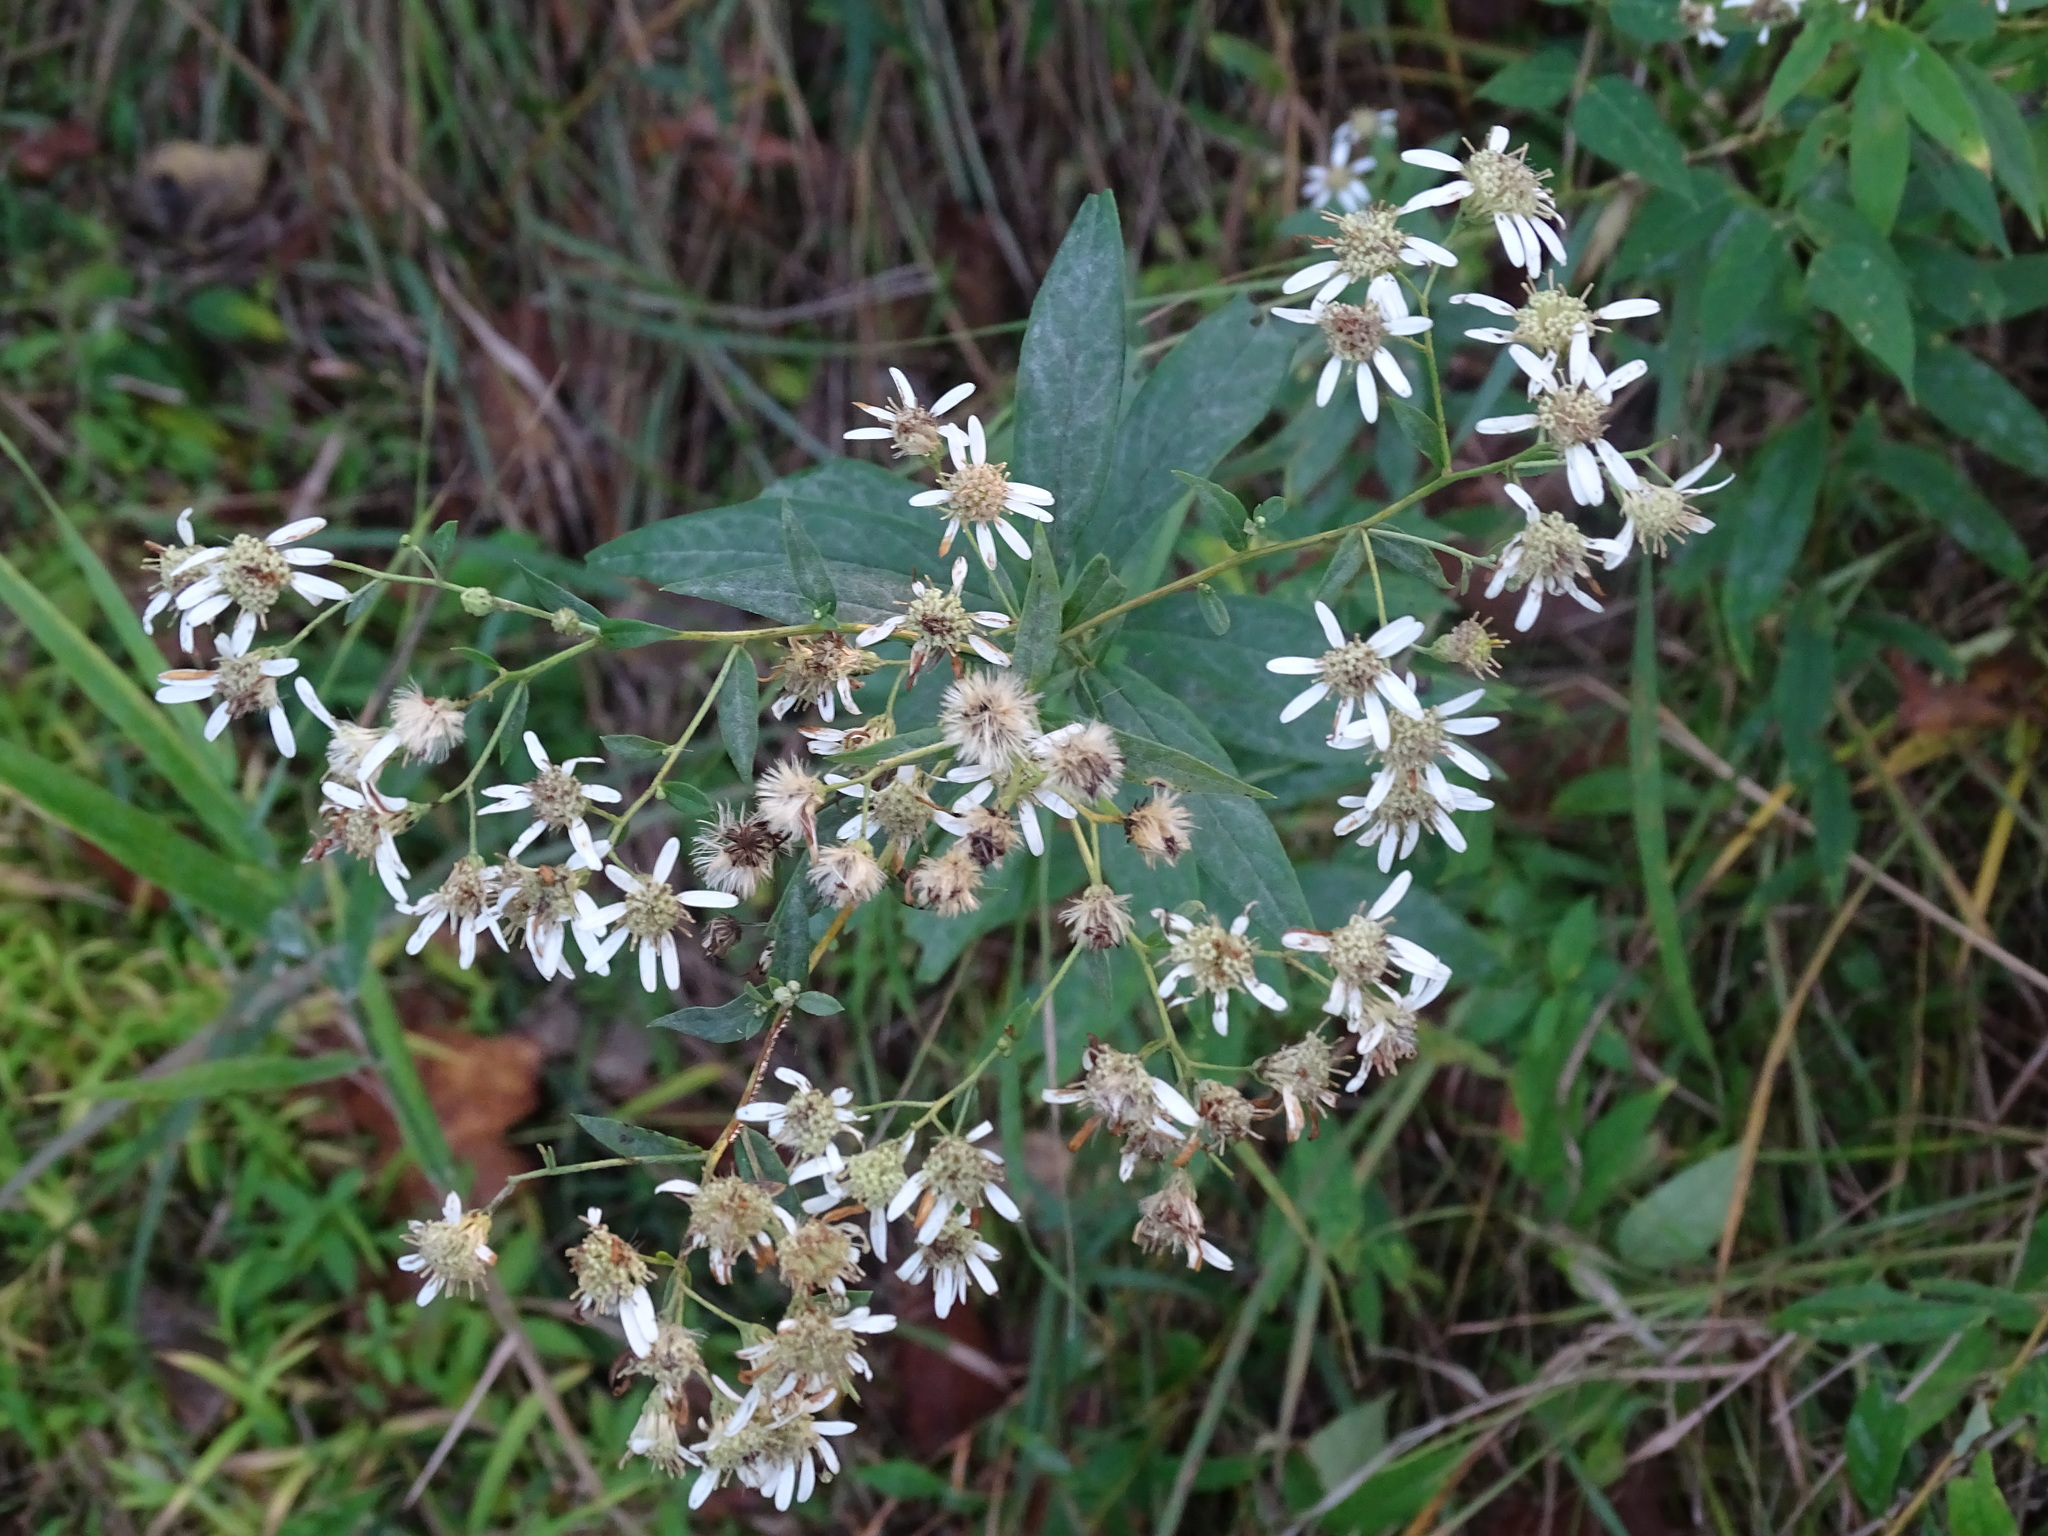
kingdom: Plantae
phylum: Tracheophyta
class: Magnoliopsida
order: Asterales
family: Asteraceae
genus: Doellingeria
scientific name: Doellingeria umbellata
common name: Flat-top white aster
